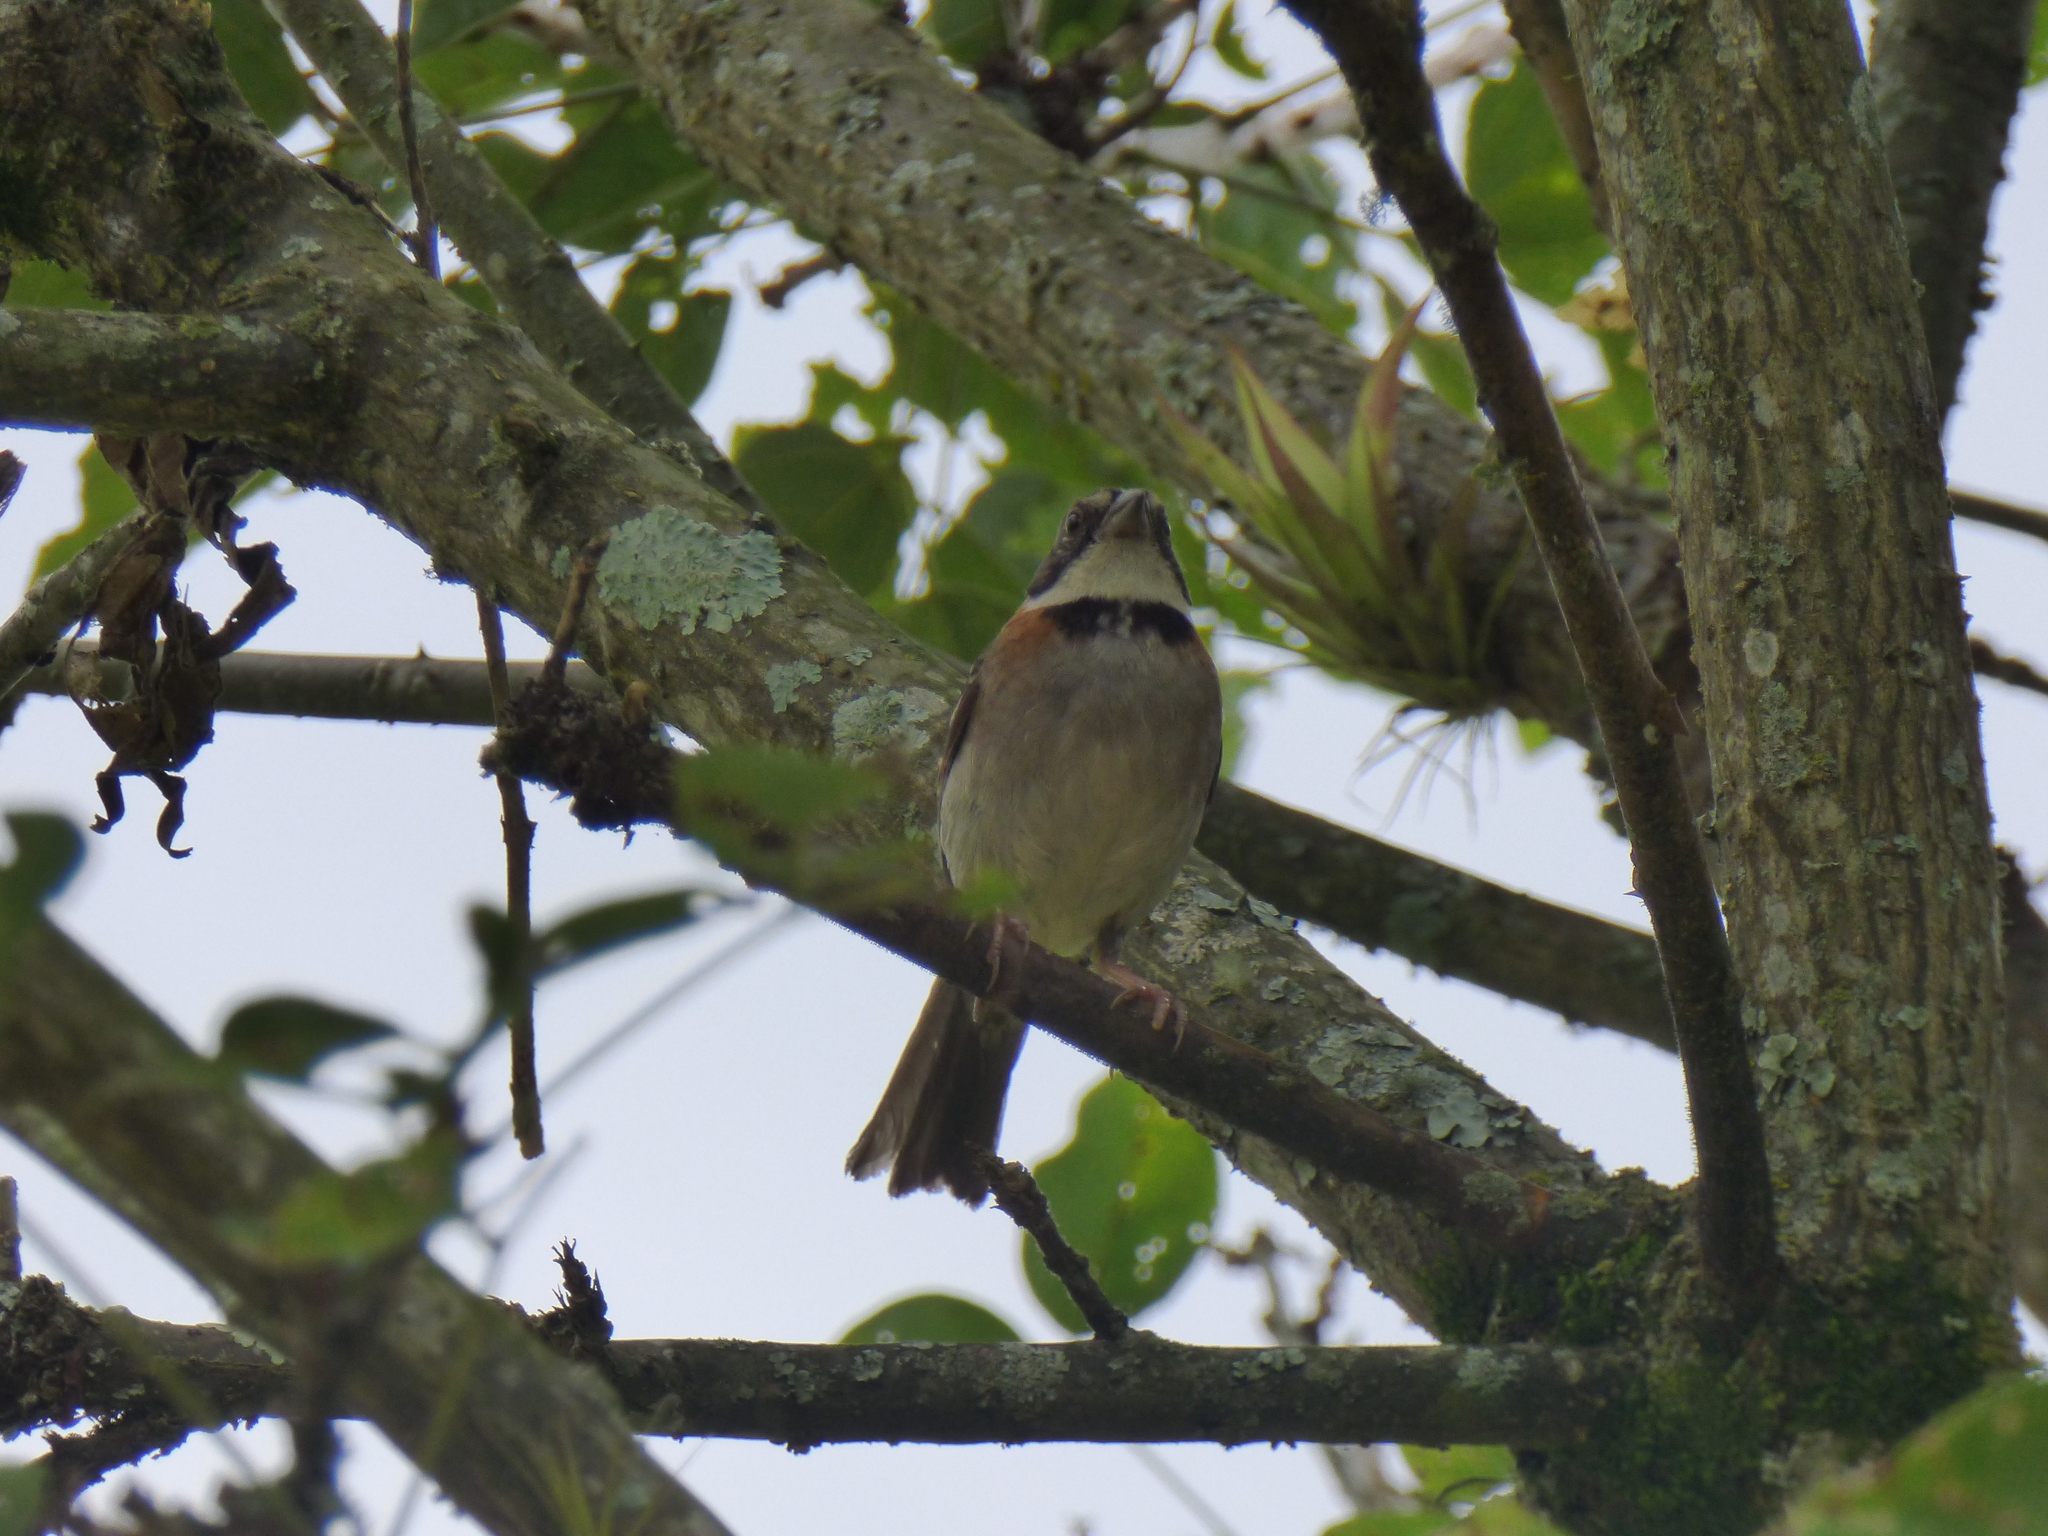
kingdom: Animalia
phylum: Chordata
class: Aves
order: Passeriformes
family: Passerellidae
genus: Zonotrichia
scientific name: Zonotrichia capensis
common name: Rufous-collared sparrow
